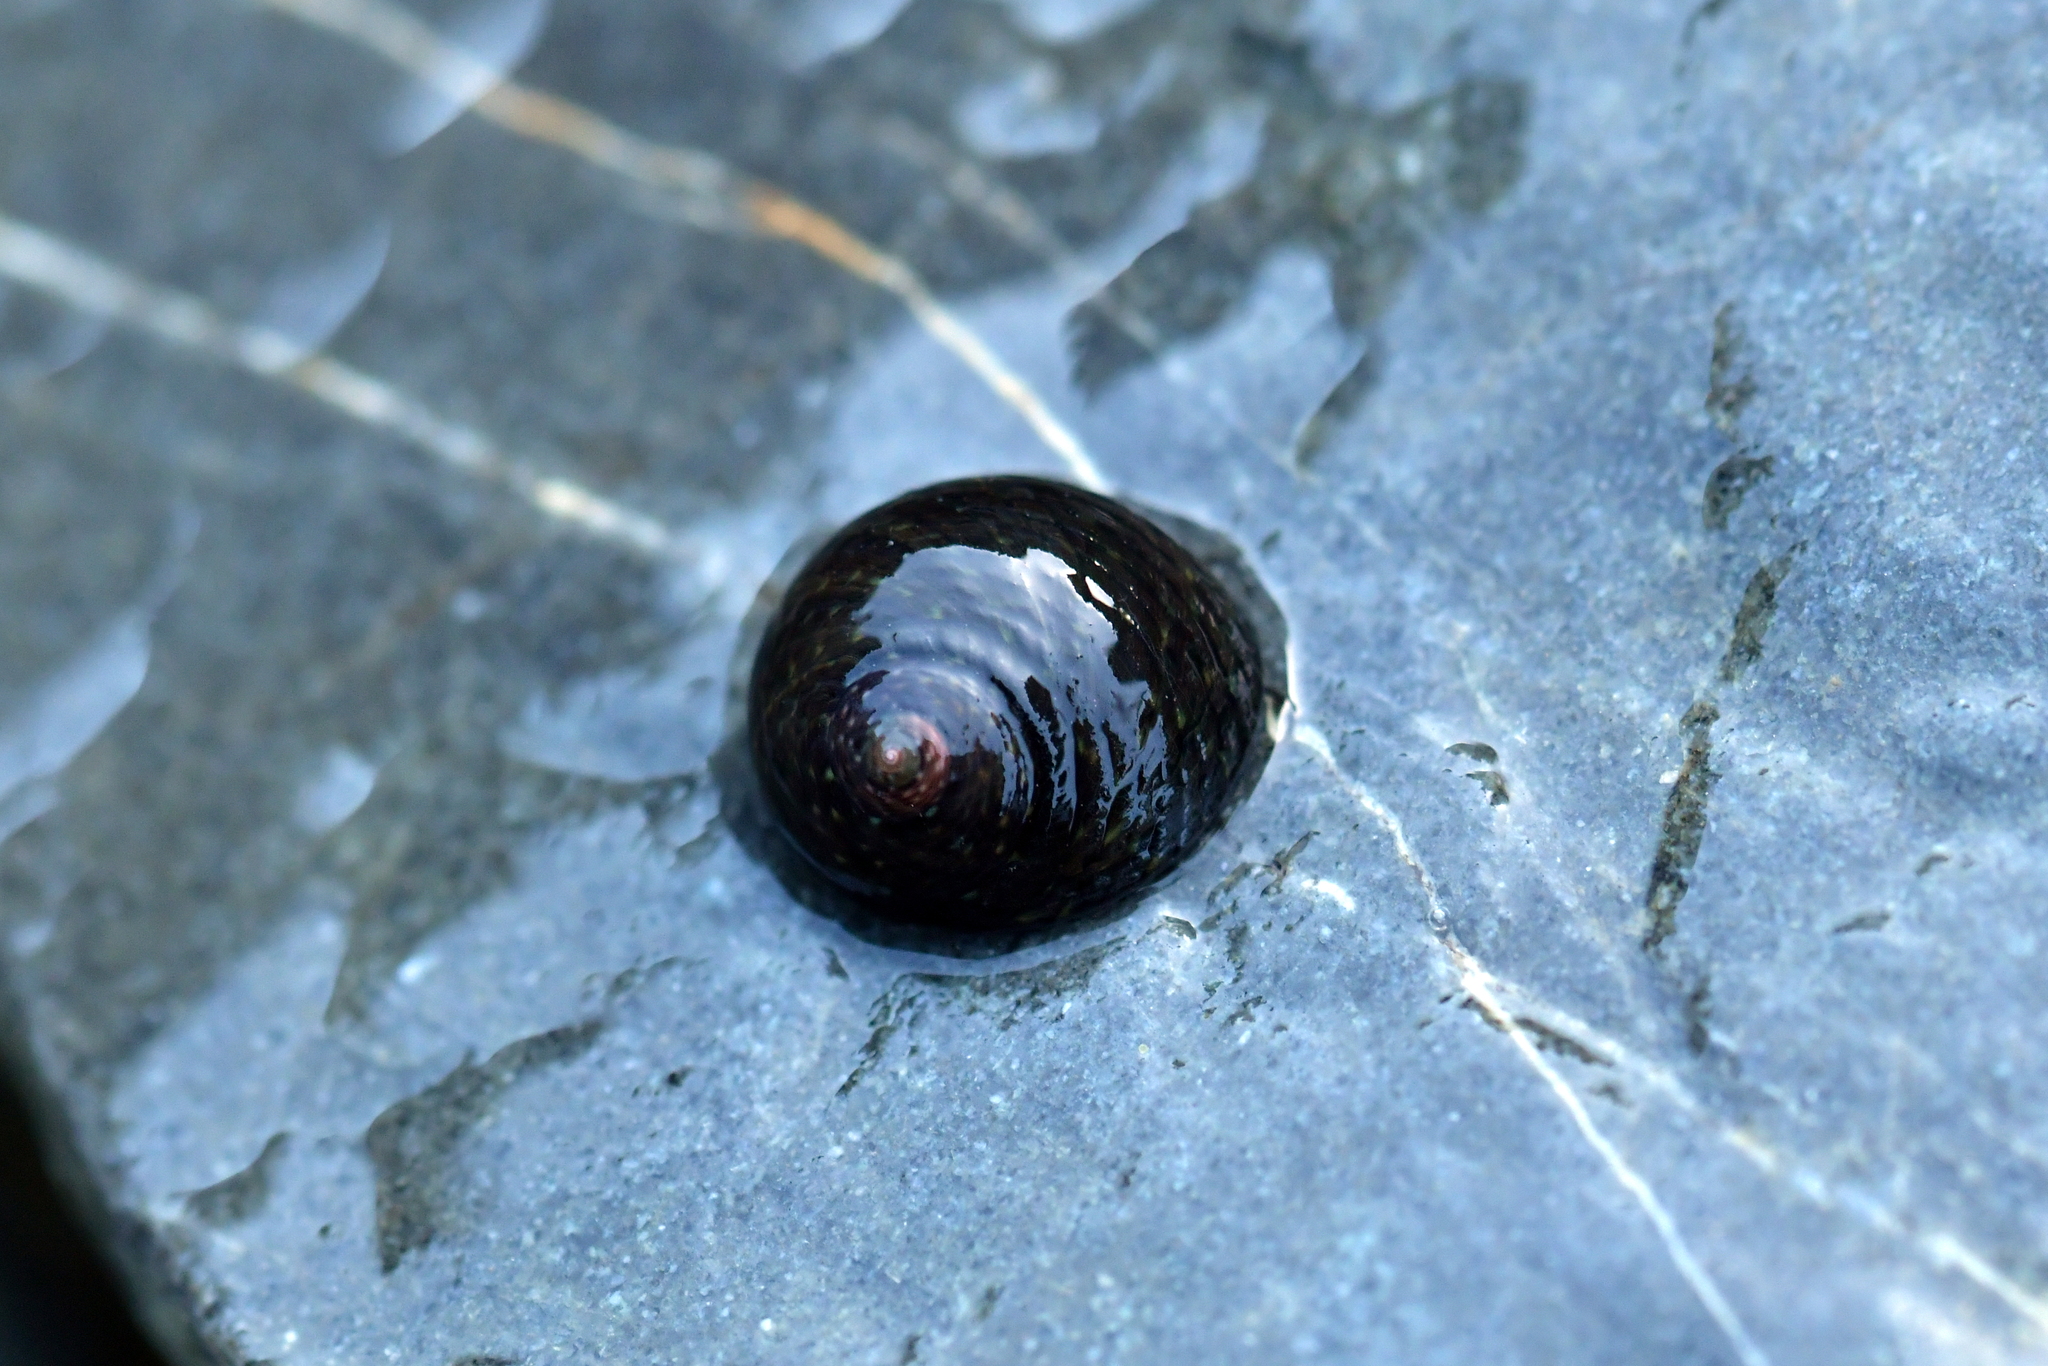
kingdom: Animalia
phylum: Mollusca
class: Gastropoda
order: Trochida
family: Trochidae
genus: Diloma
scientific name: Diloma zelandicum
